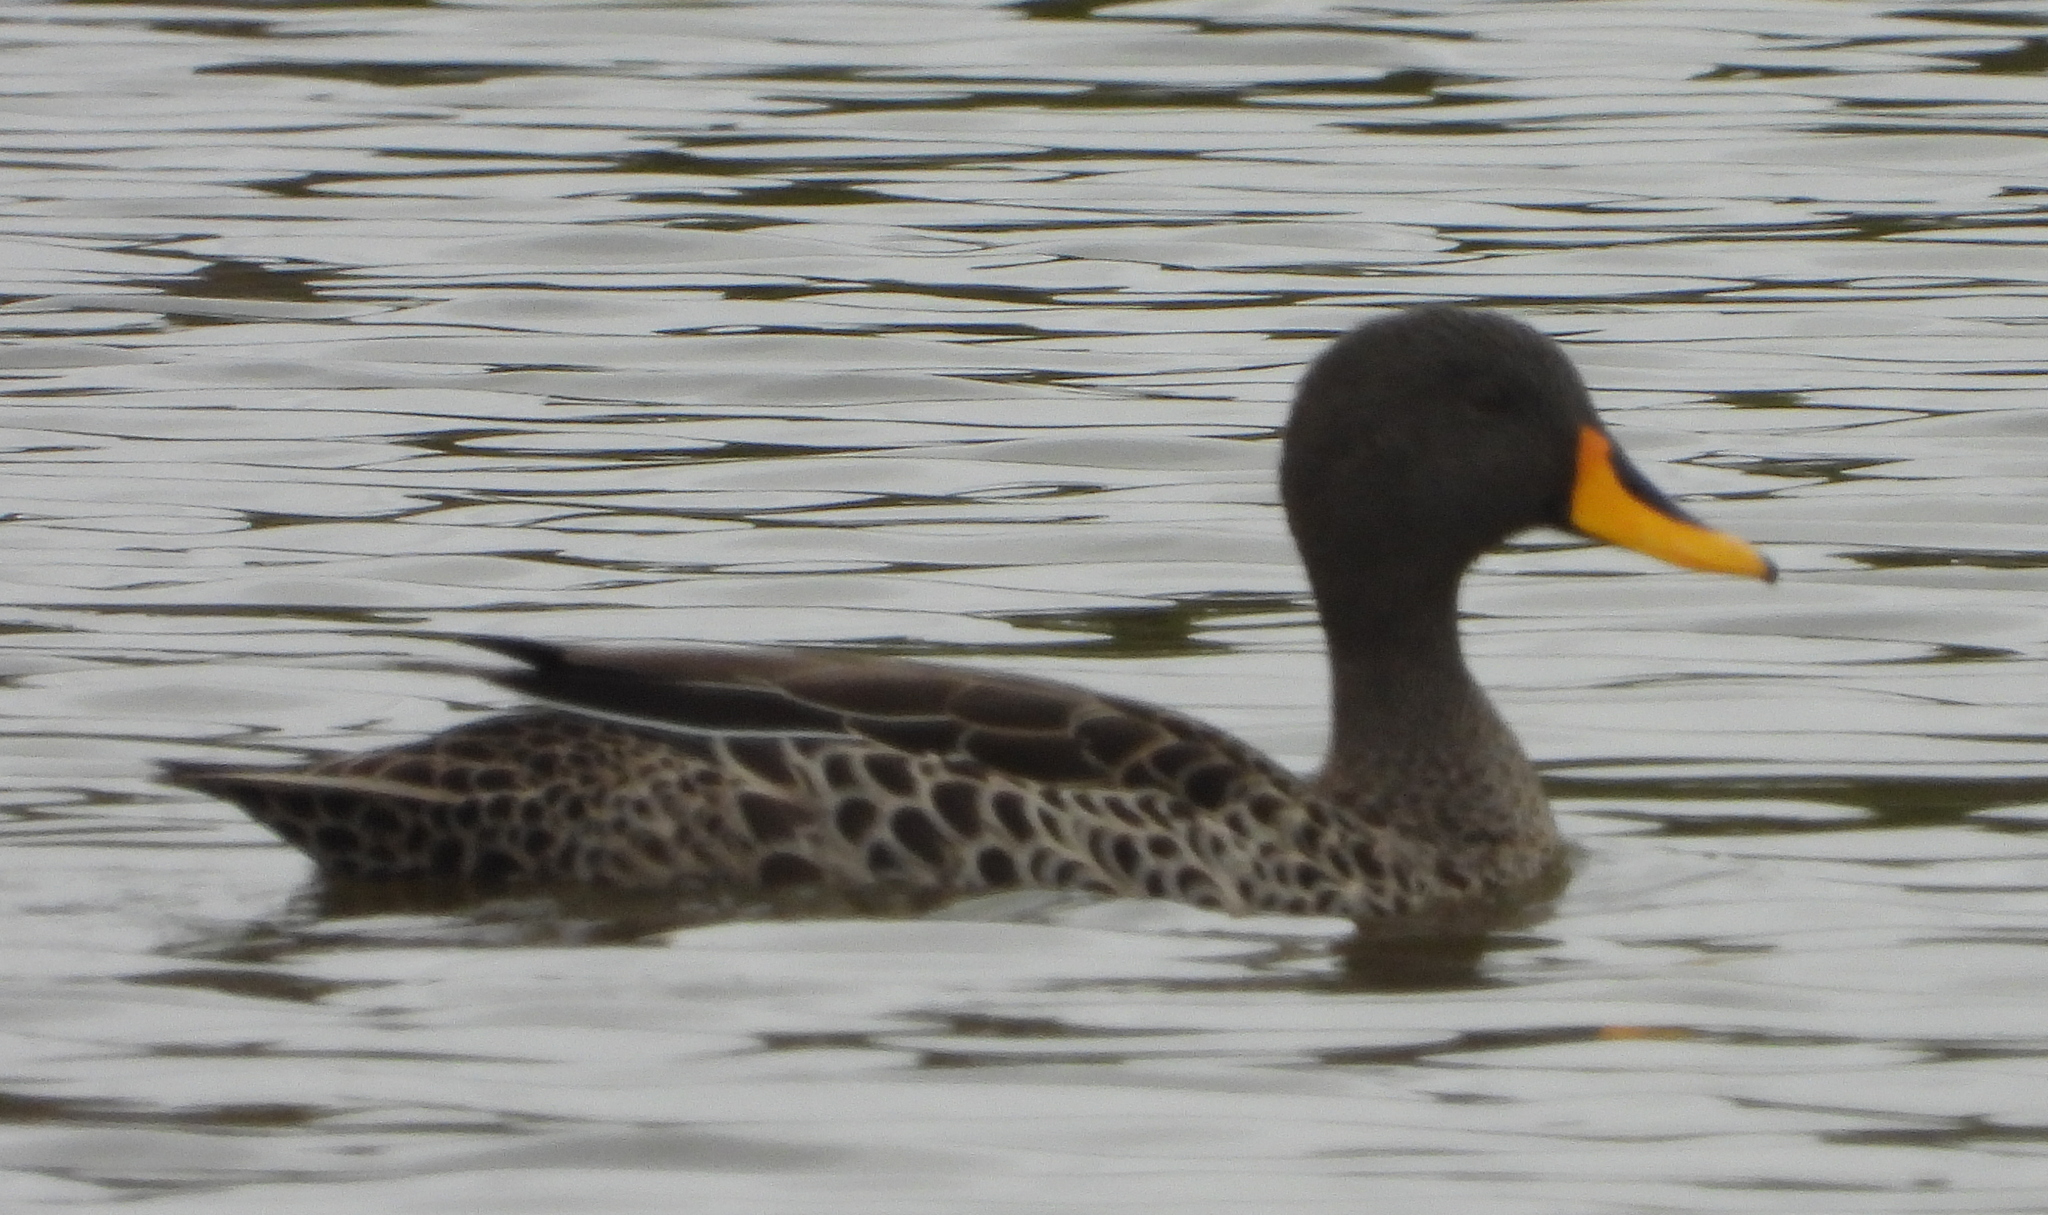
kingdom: Animalia
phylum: Chordata
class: Aves
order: Anseriformes
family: Anatidae
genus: Anas
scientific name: Anas undulata
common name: Yellow-billed duck
